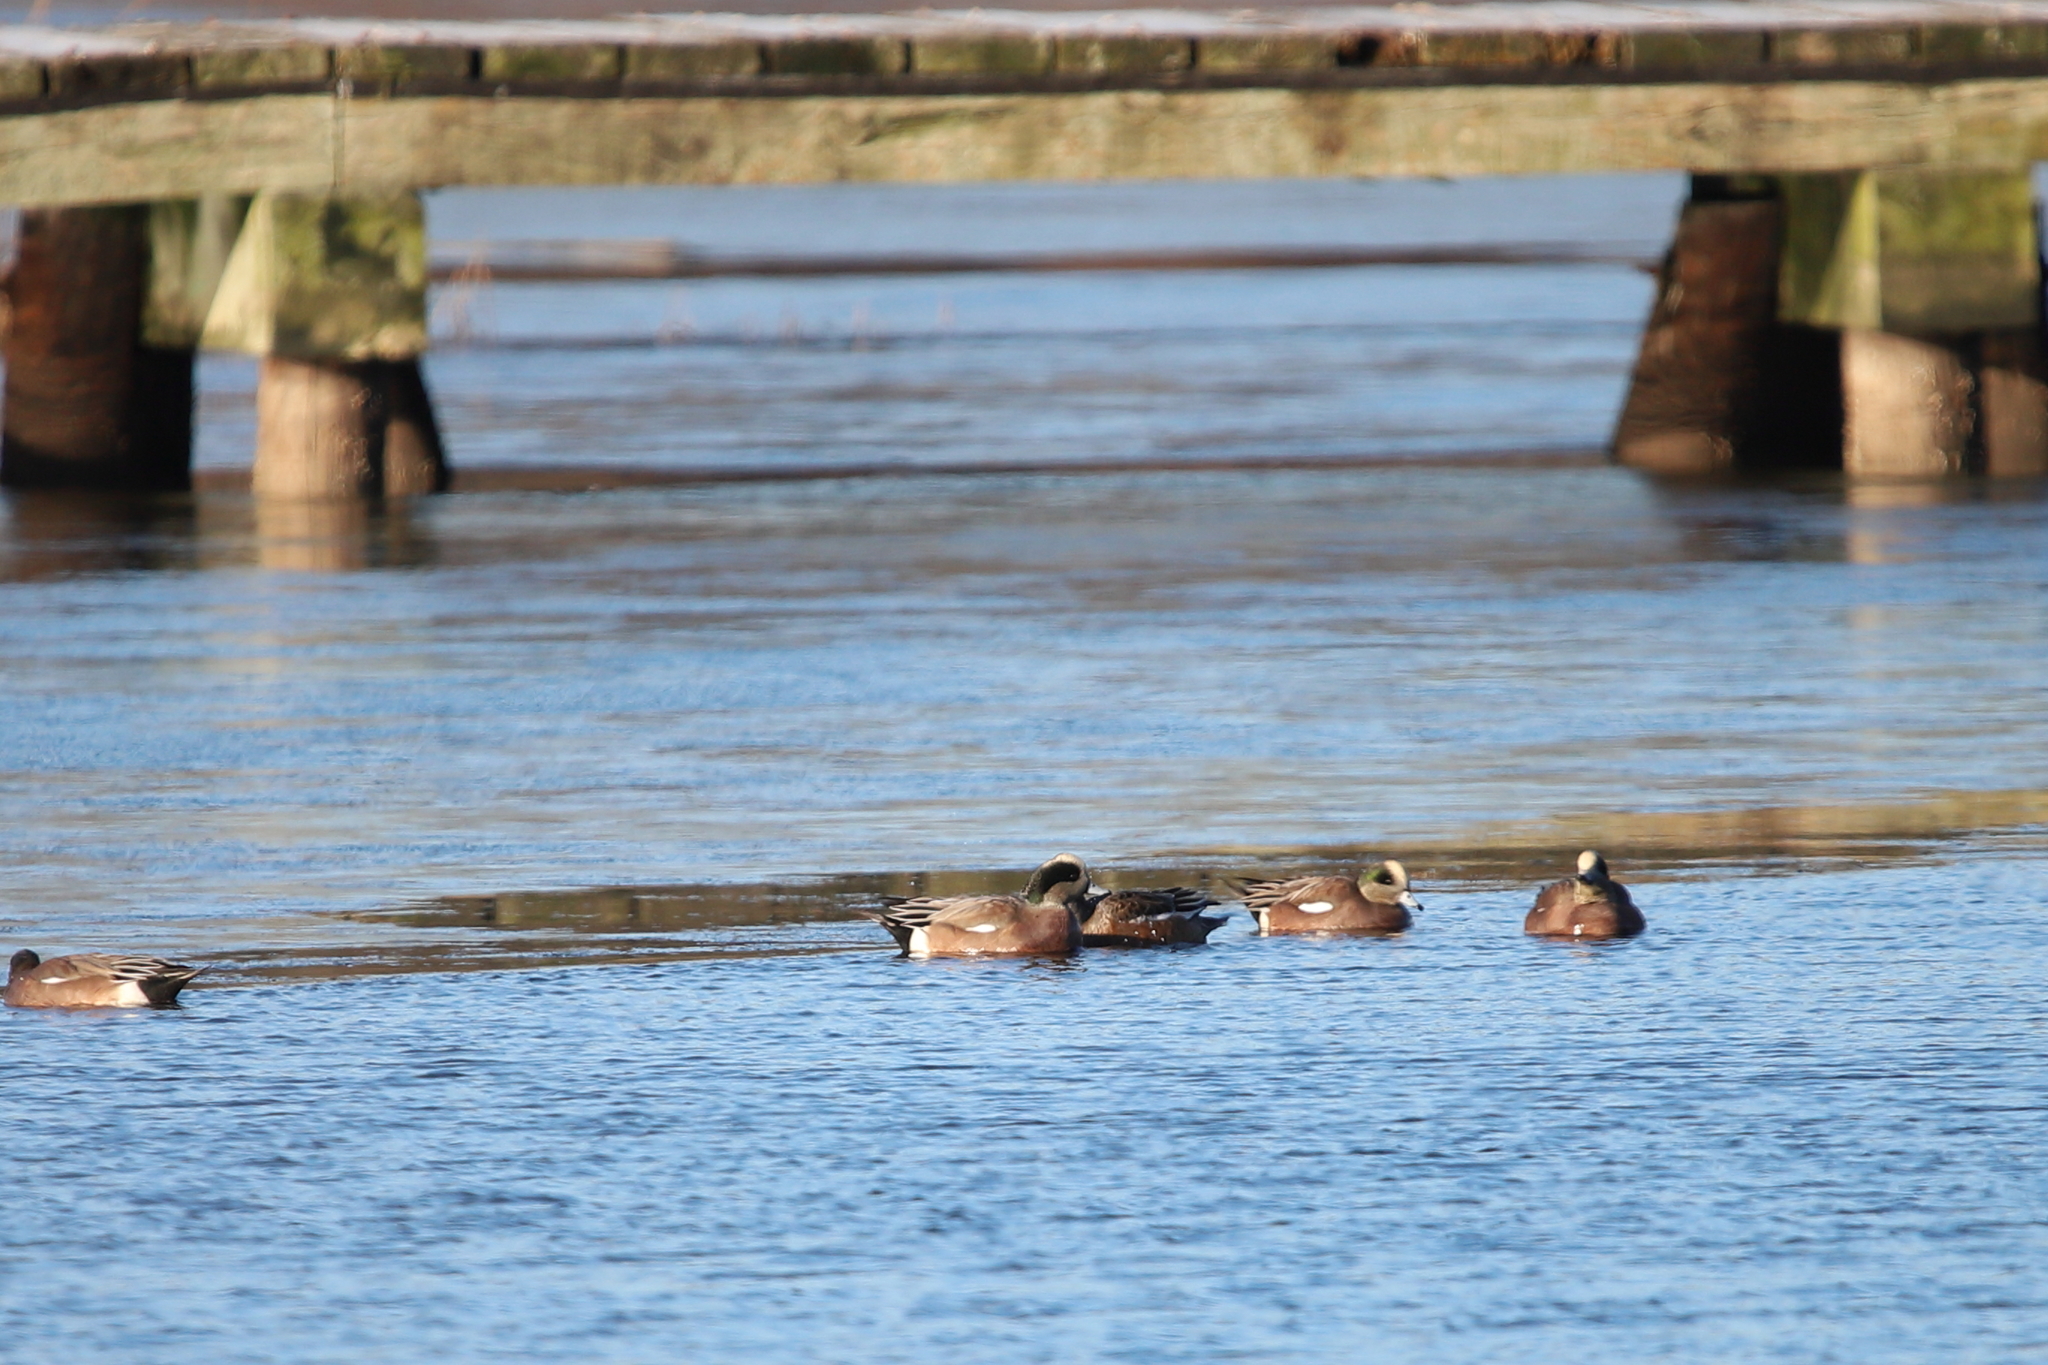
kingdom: Animalia
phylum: Chordata
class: Aves
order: Anseriformes
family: Anatidae
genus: Mareca
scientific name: Mareca americana
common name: American wigeon
